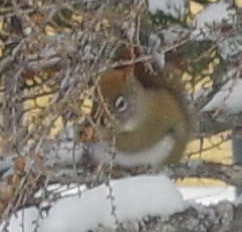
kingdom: Animalia
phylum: Chordata
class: Mammalia
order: Rodentia
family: Sciuridae
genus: Tamiasciurus
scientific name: Tamiasciurus hudsonicus
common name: Red squirrel
